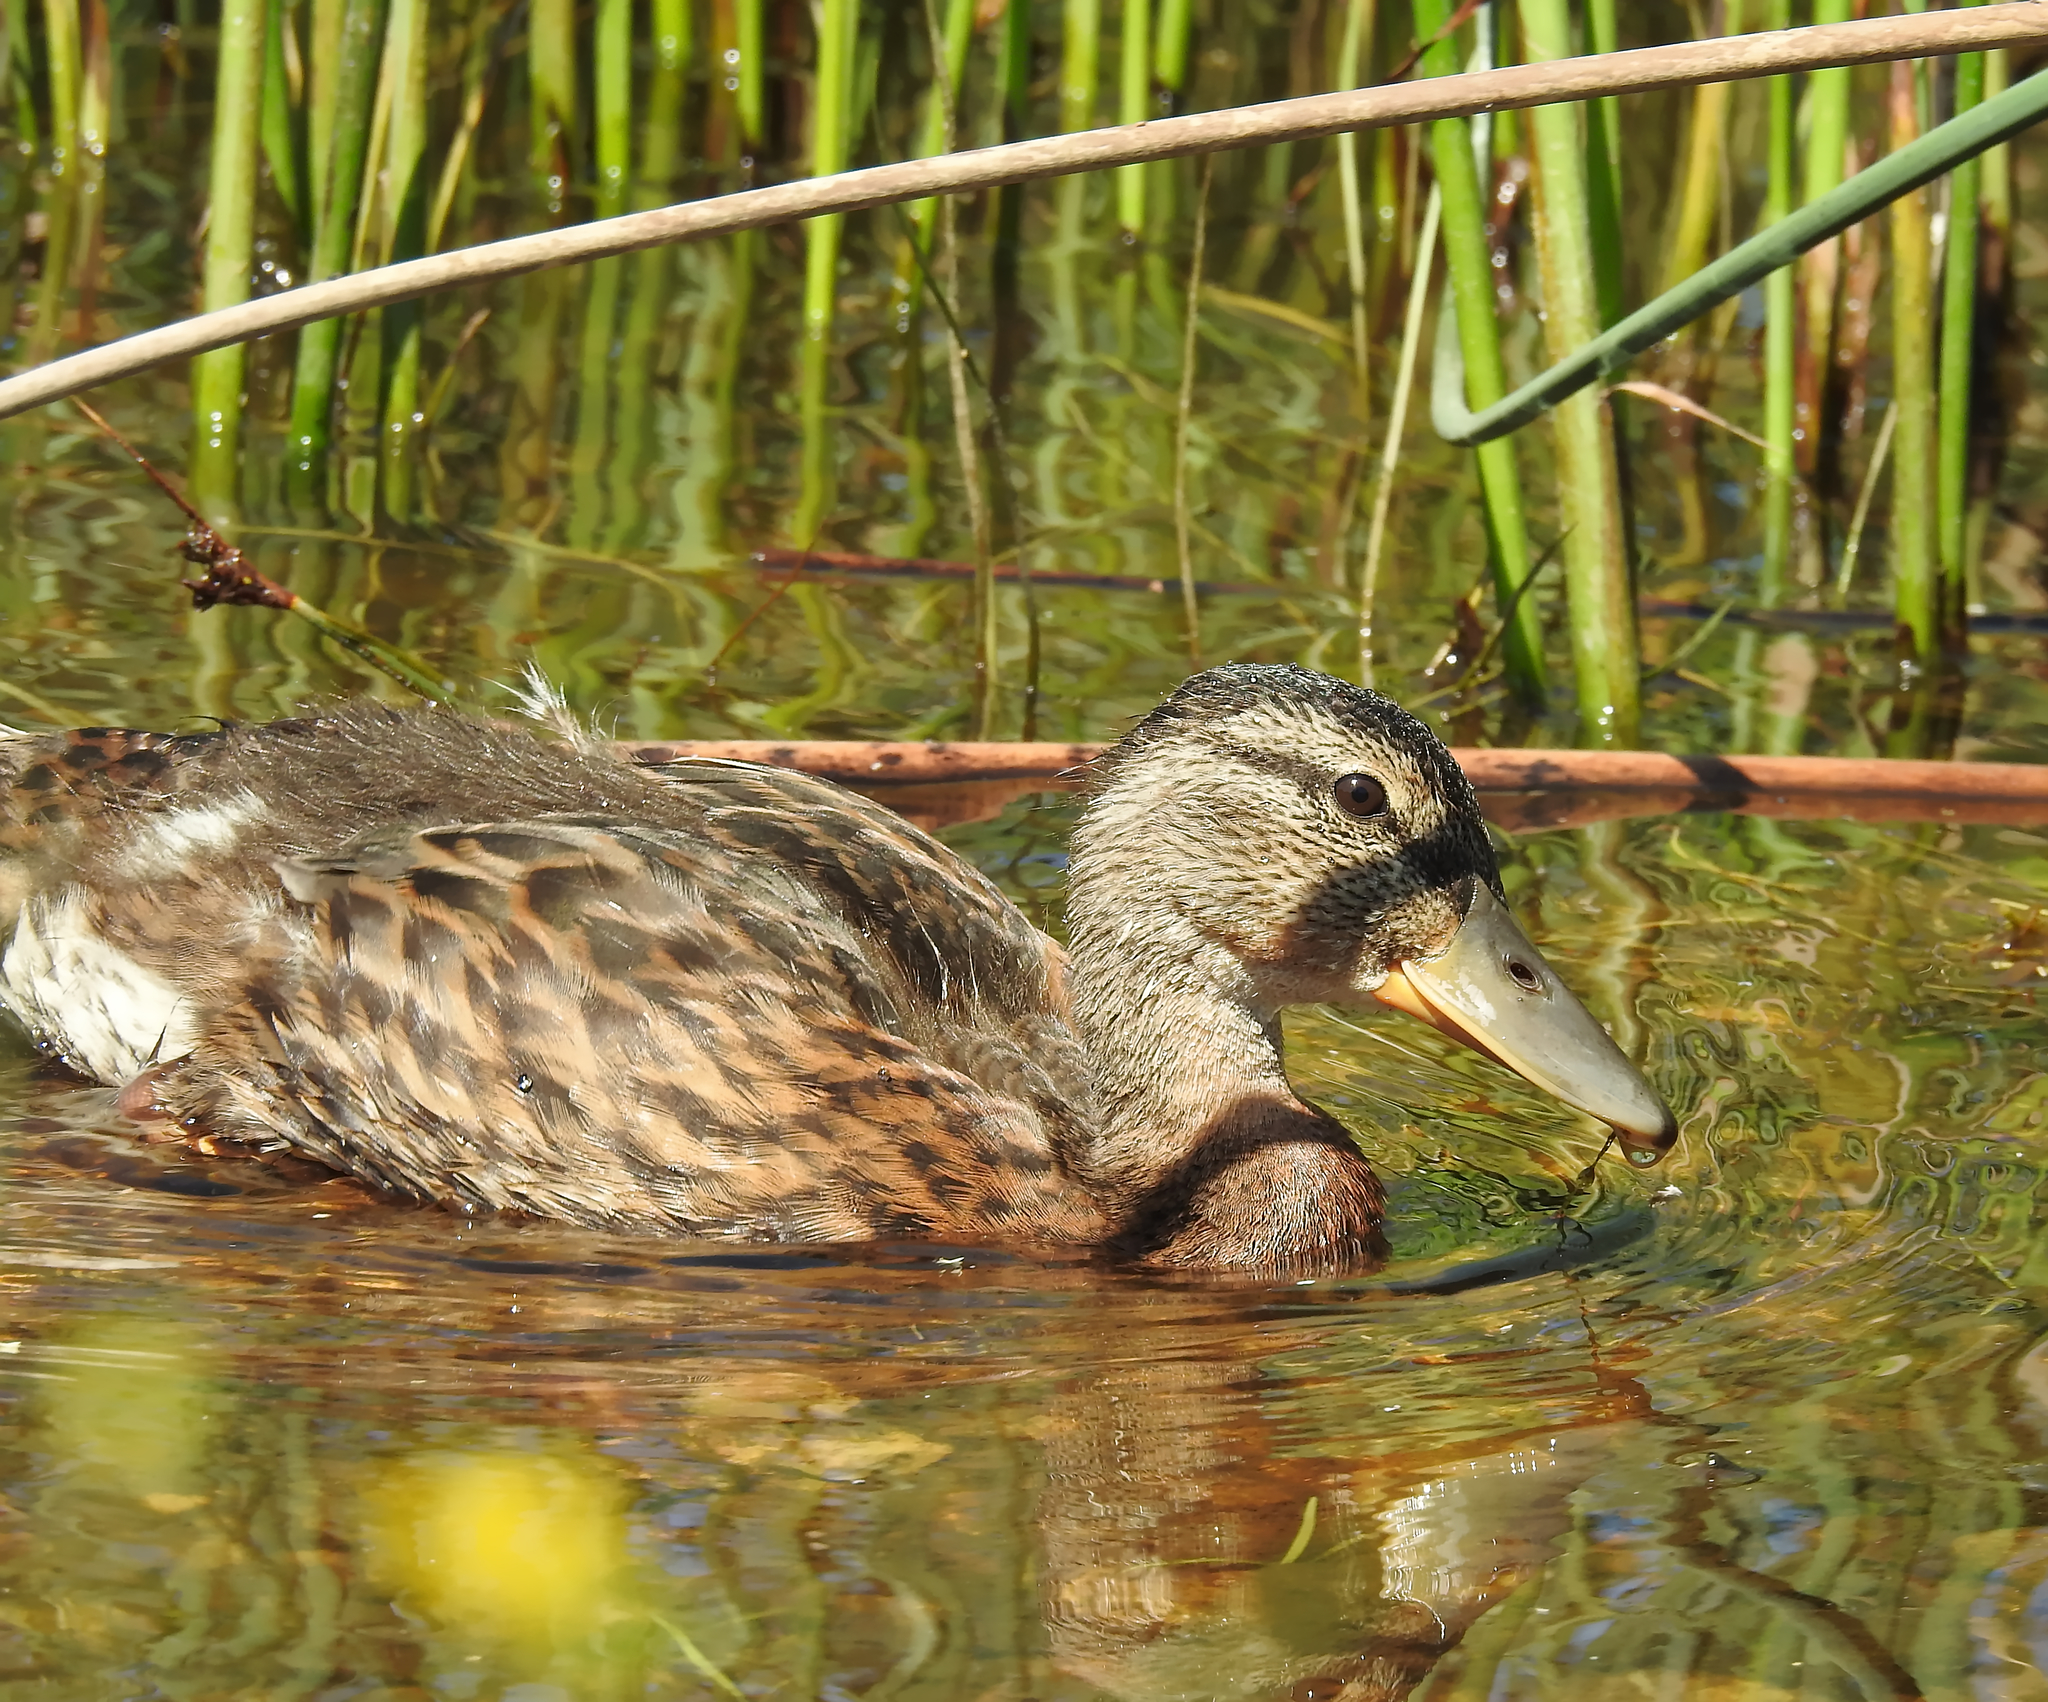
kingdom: Animalia
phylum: Chordata
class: Aves
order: Anseriformes
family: Anatidae
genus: Anas
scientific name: Anas platyrhynchos
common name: Mallard
